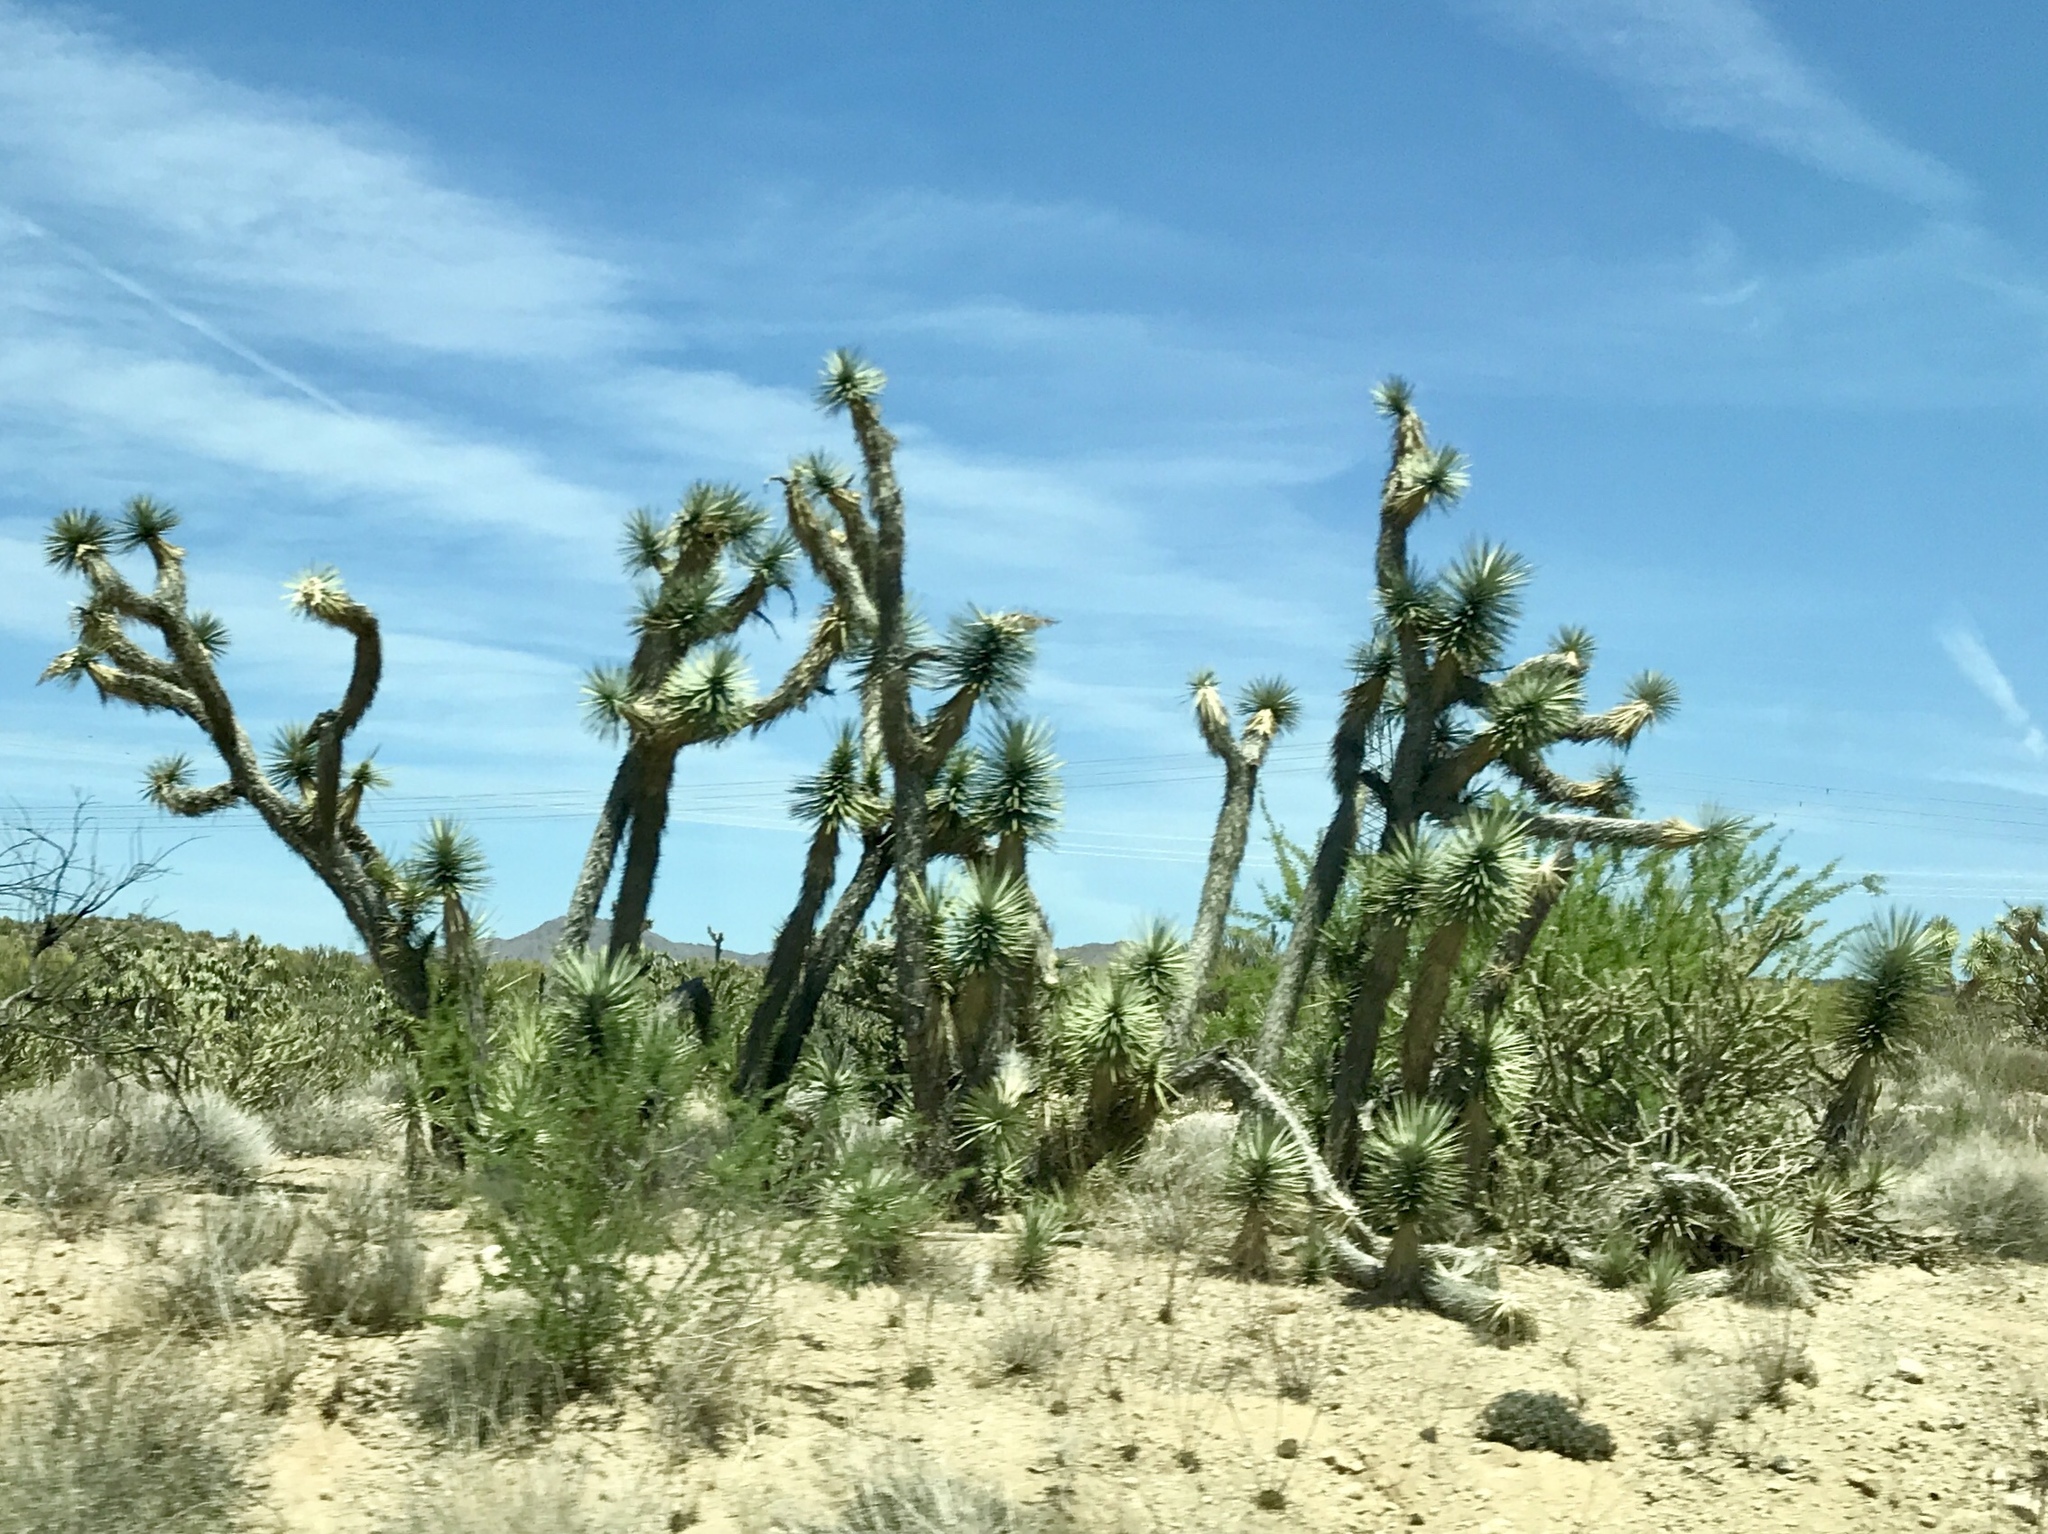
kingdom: Plantae
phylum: Tracheophyta
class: Liliopsida
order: Asparagales
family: Asparagaceae
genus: Yucca
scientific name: Yucca brevifolia
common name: Joshua tree
